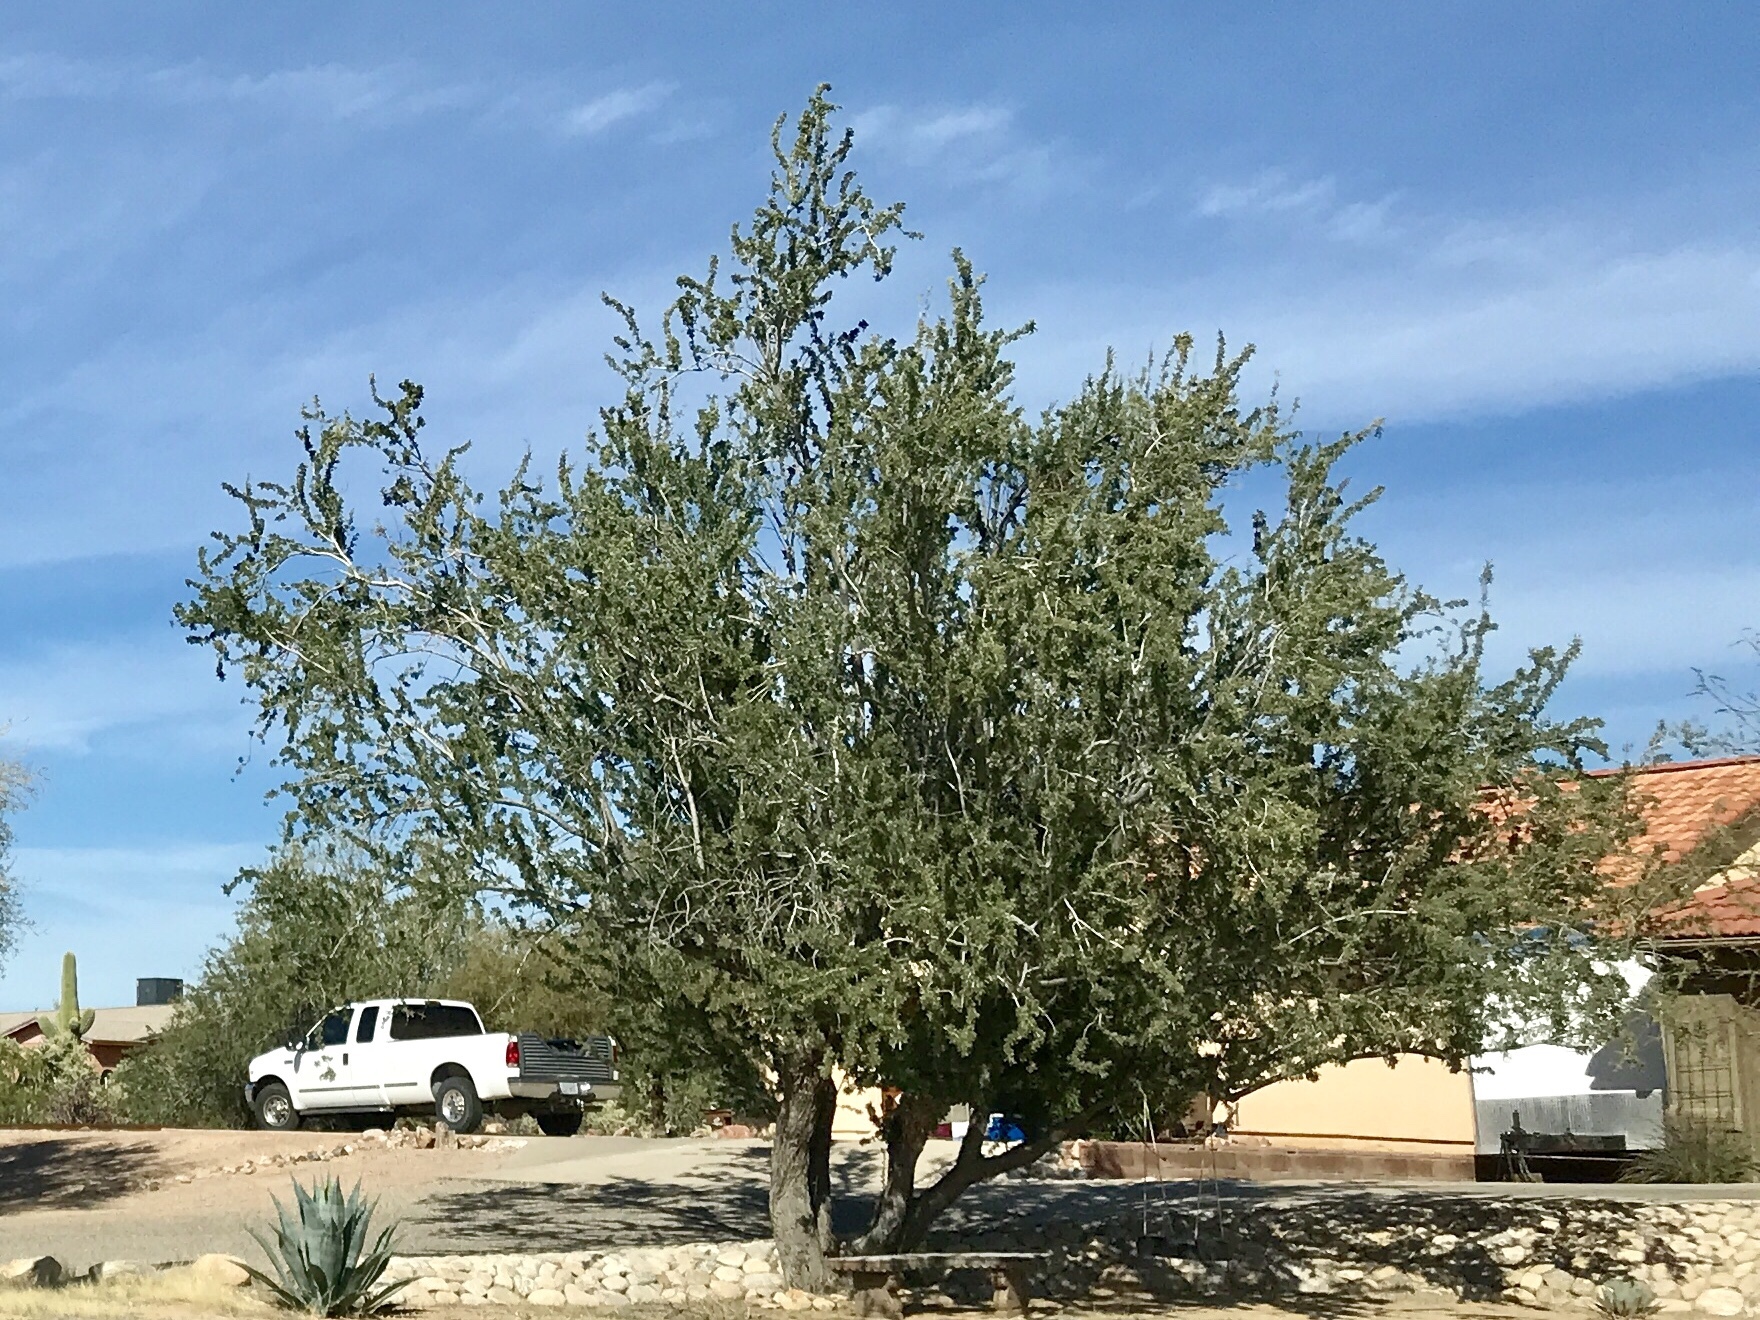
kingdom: Plantae
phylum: Tracheophyta
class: Magnoliopsida
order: Fabales
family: Fabaceae
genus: Olneya
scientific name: Olneya tesota
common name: Desert ironwood
